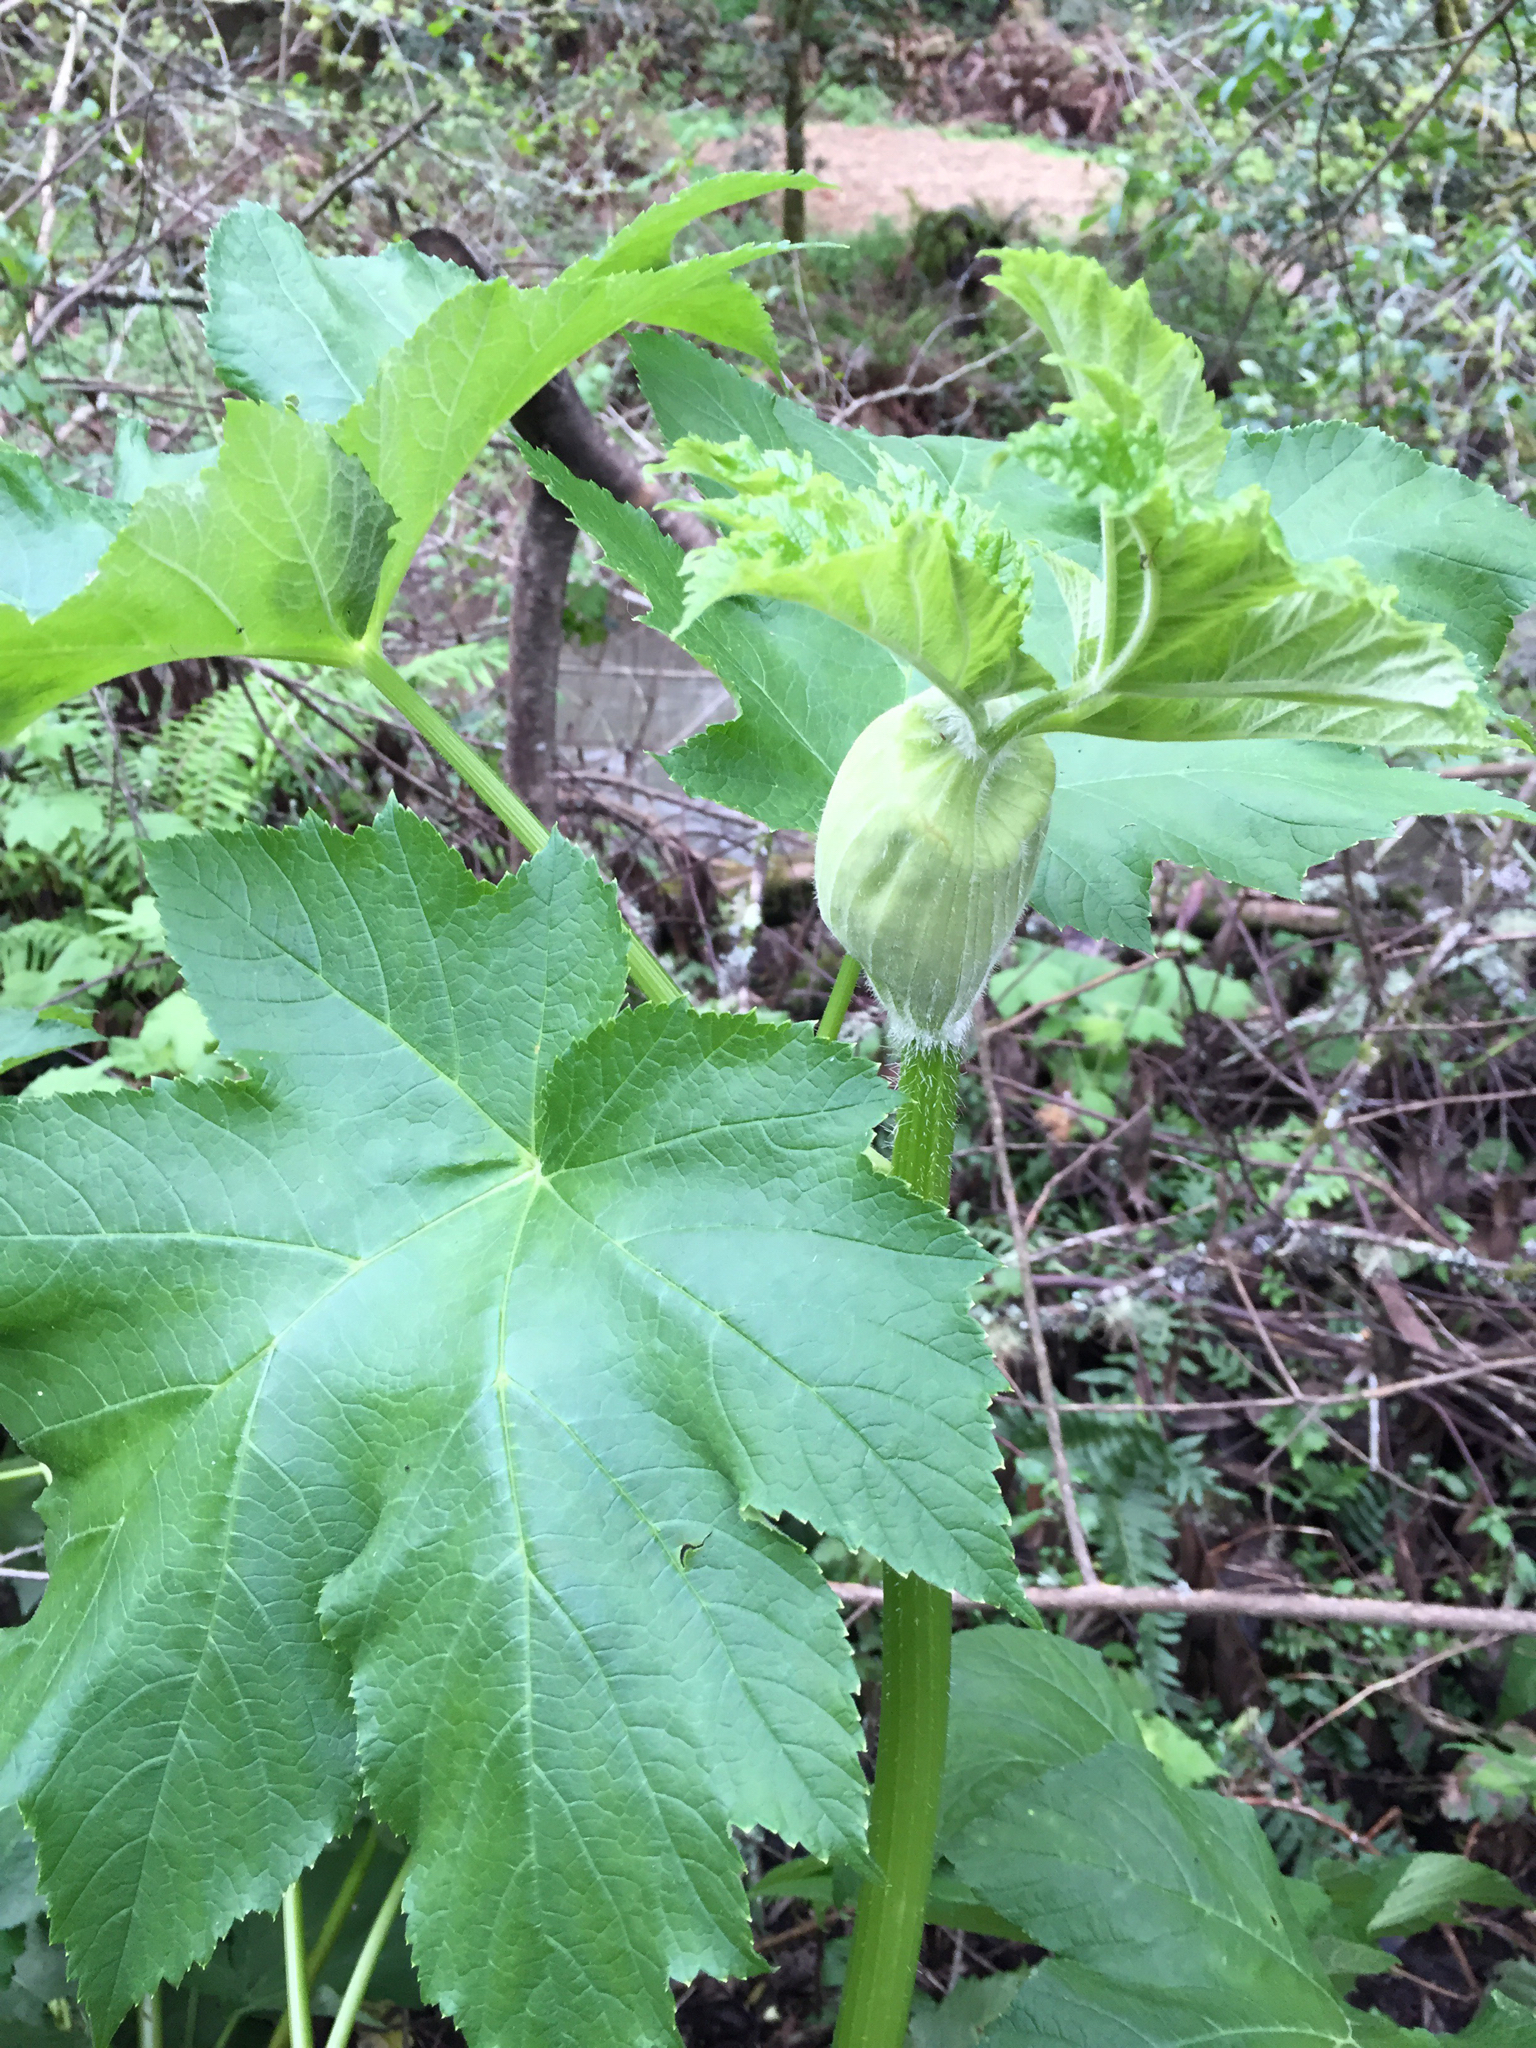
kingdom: Plantae
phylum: Tracheophyta
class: Magnoliopsida
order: Apiales
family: Apiaceae
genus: Heracleum
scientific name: Heracleum maximum
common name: American cow parsnip
